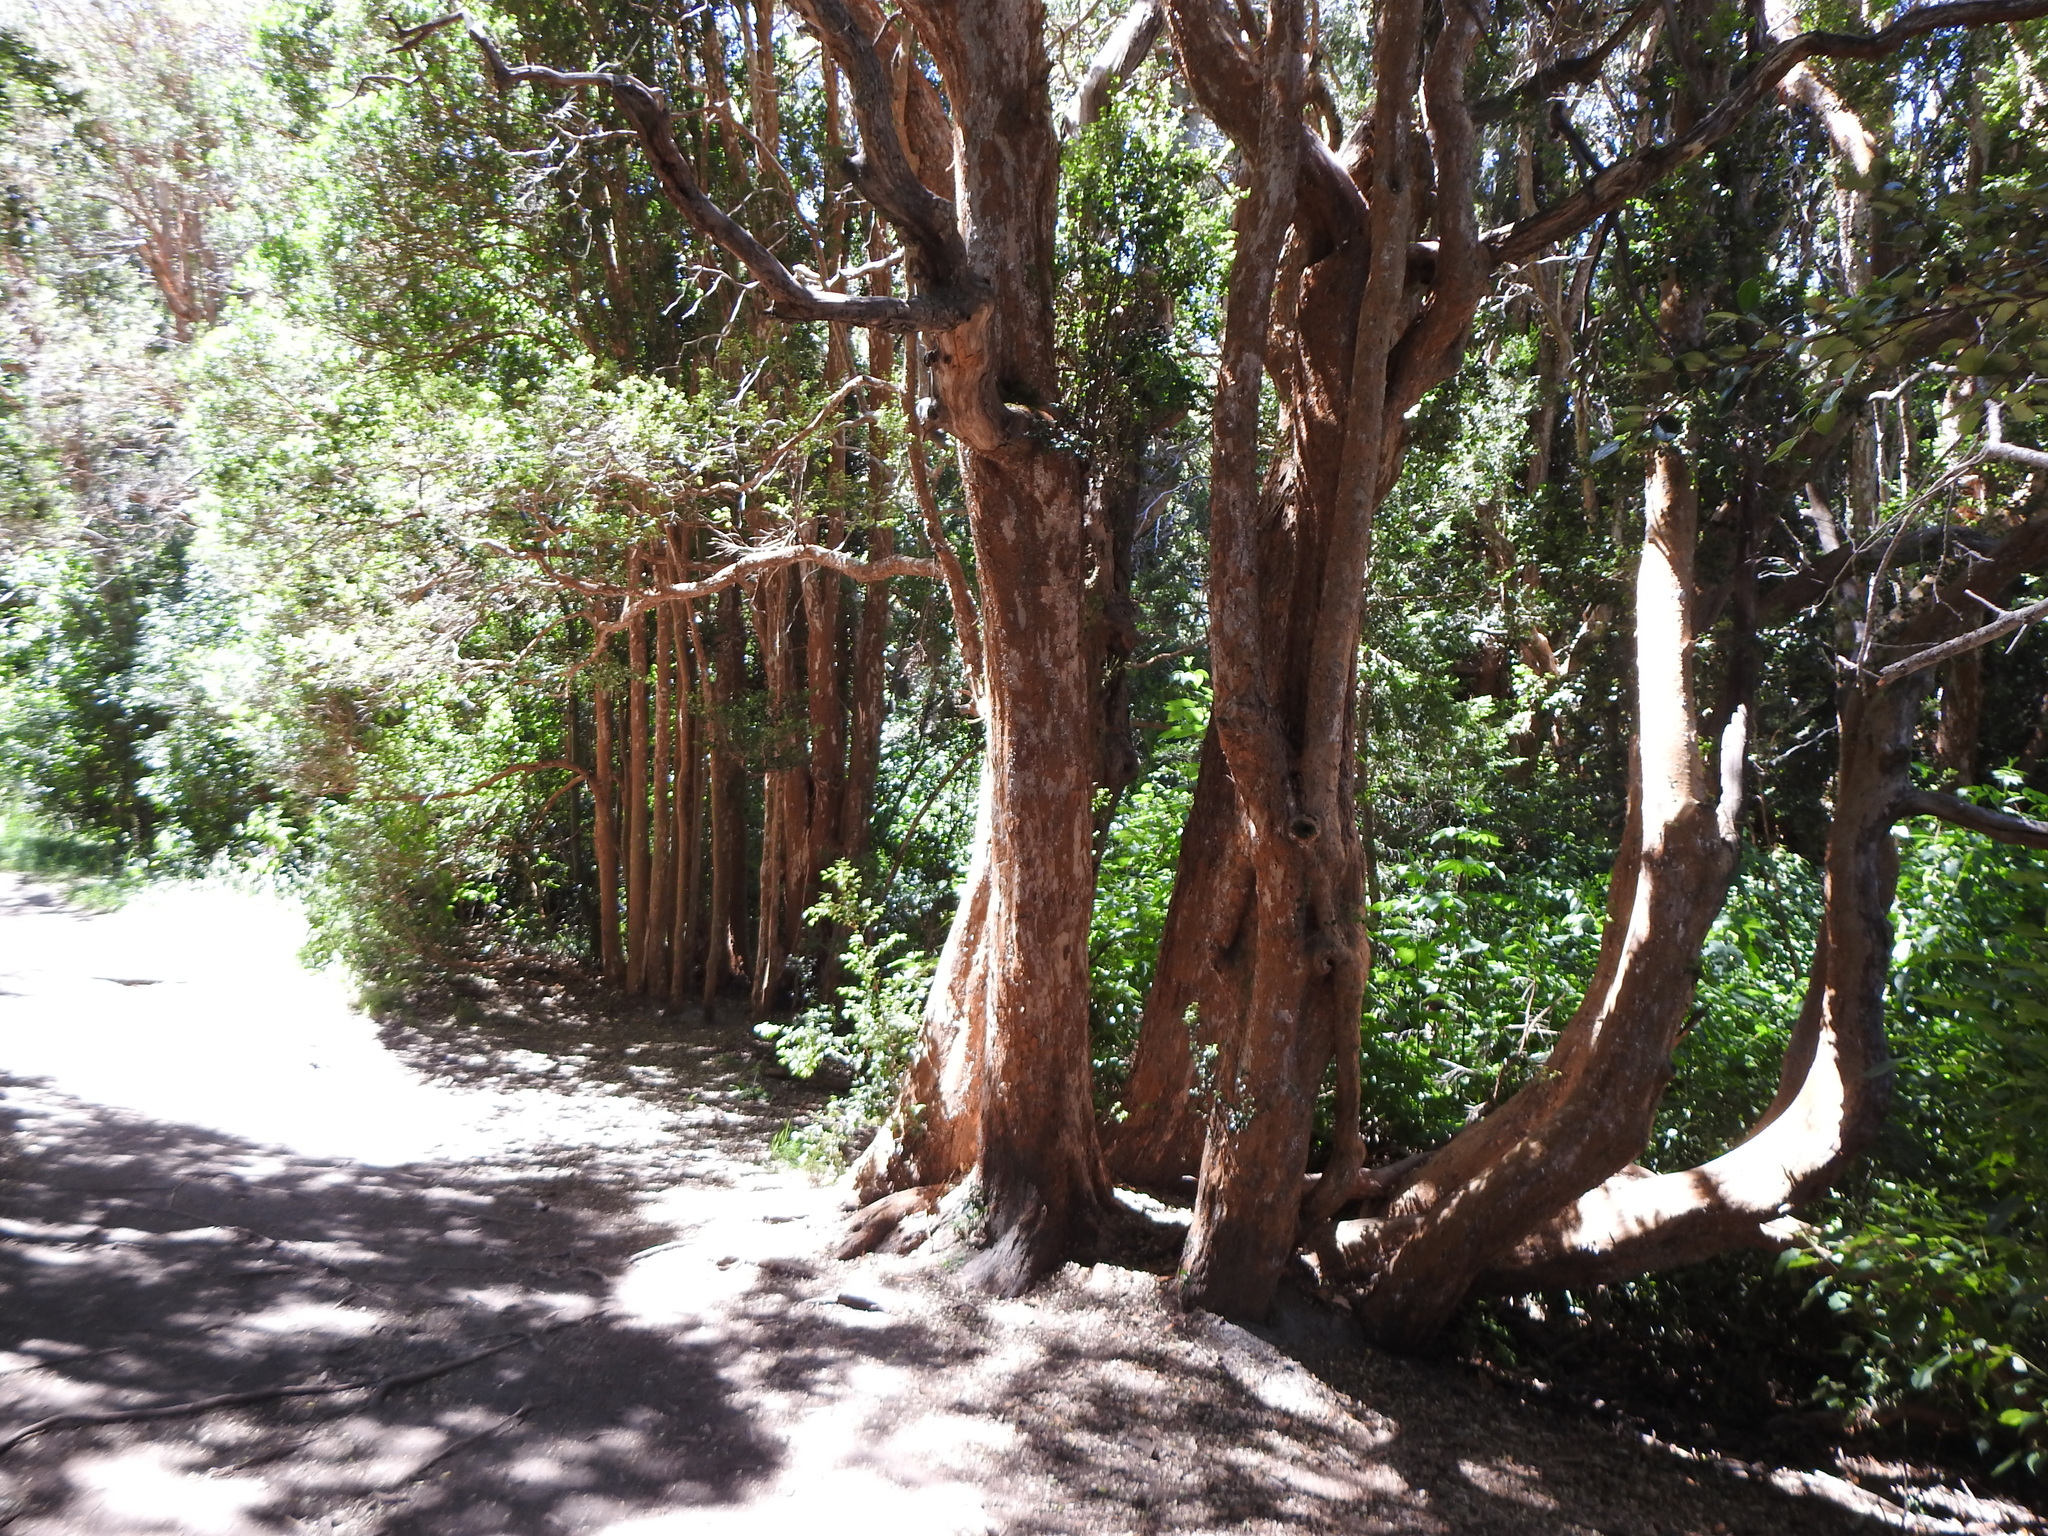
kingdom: Plantae
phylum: Tracheophyta
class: Magnoliopsida
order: Myrtales
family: Myrtaceae
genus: Luma
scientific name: Luma apiculata
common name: Chilean myrtle
